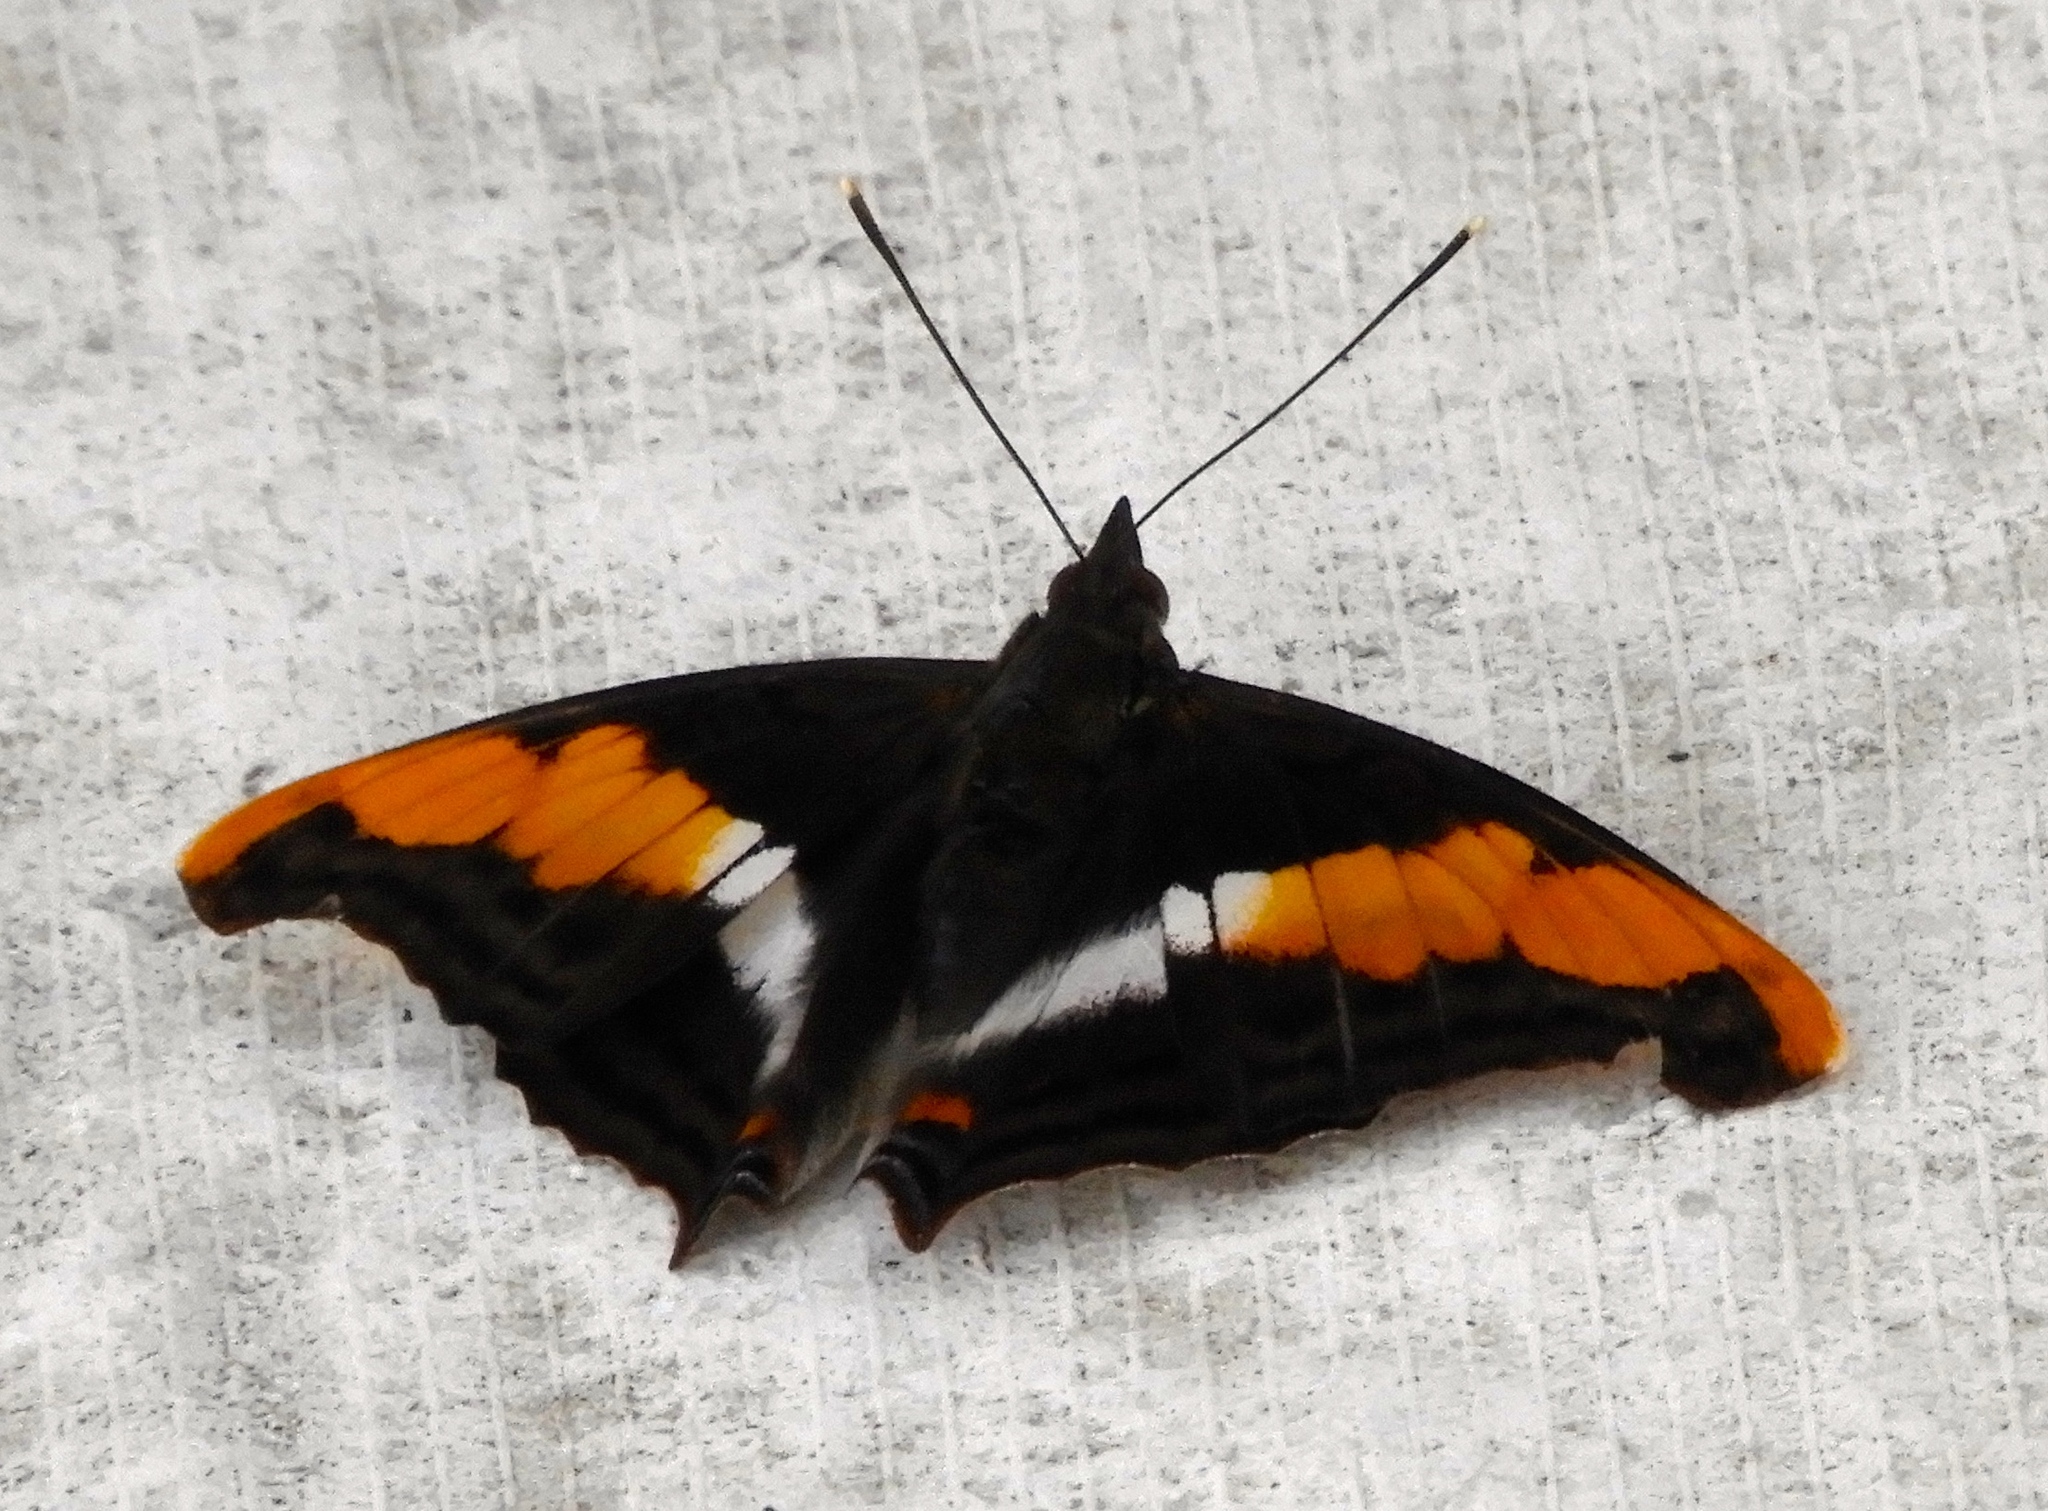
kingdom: Animalia
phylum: Arthropoda
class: Insecta
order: Lepidoptera
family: Nymphalidae
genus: Doxocopa
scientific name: Doxocopa laure
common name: Silver emperor
